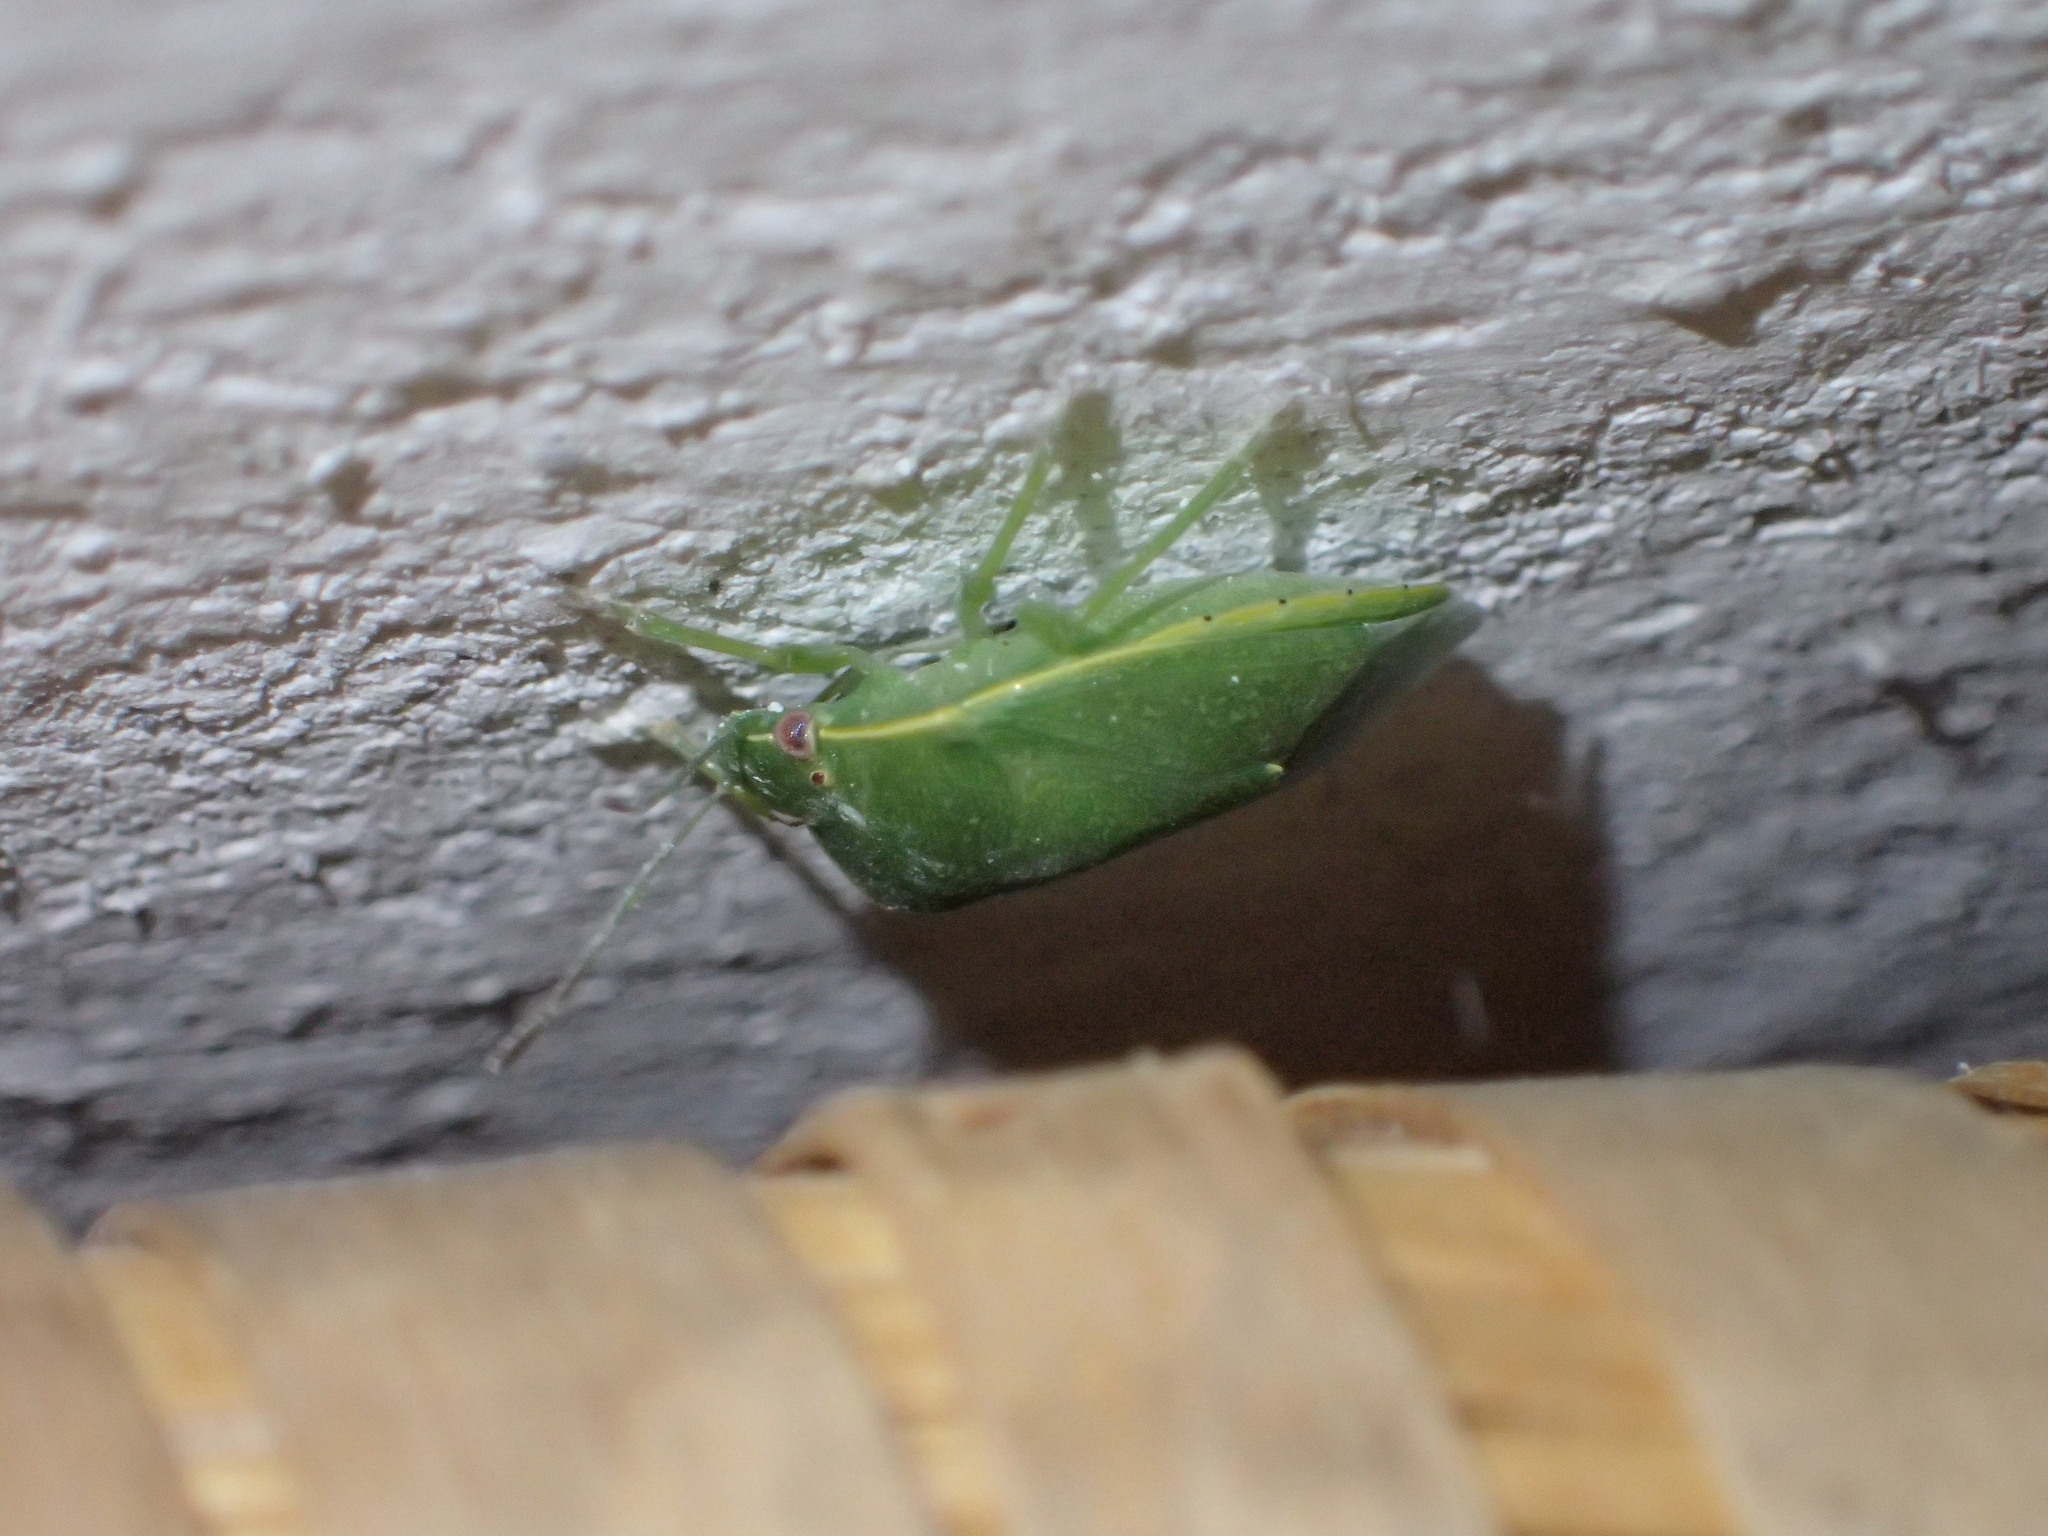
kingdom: Animalia
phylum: Arthropoda
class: Insecta
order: Hemiptera
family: Pentatomidae
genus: Acrosternum
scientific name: Acrosternum heegeri
